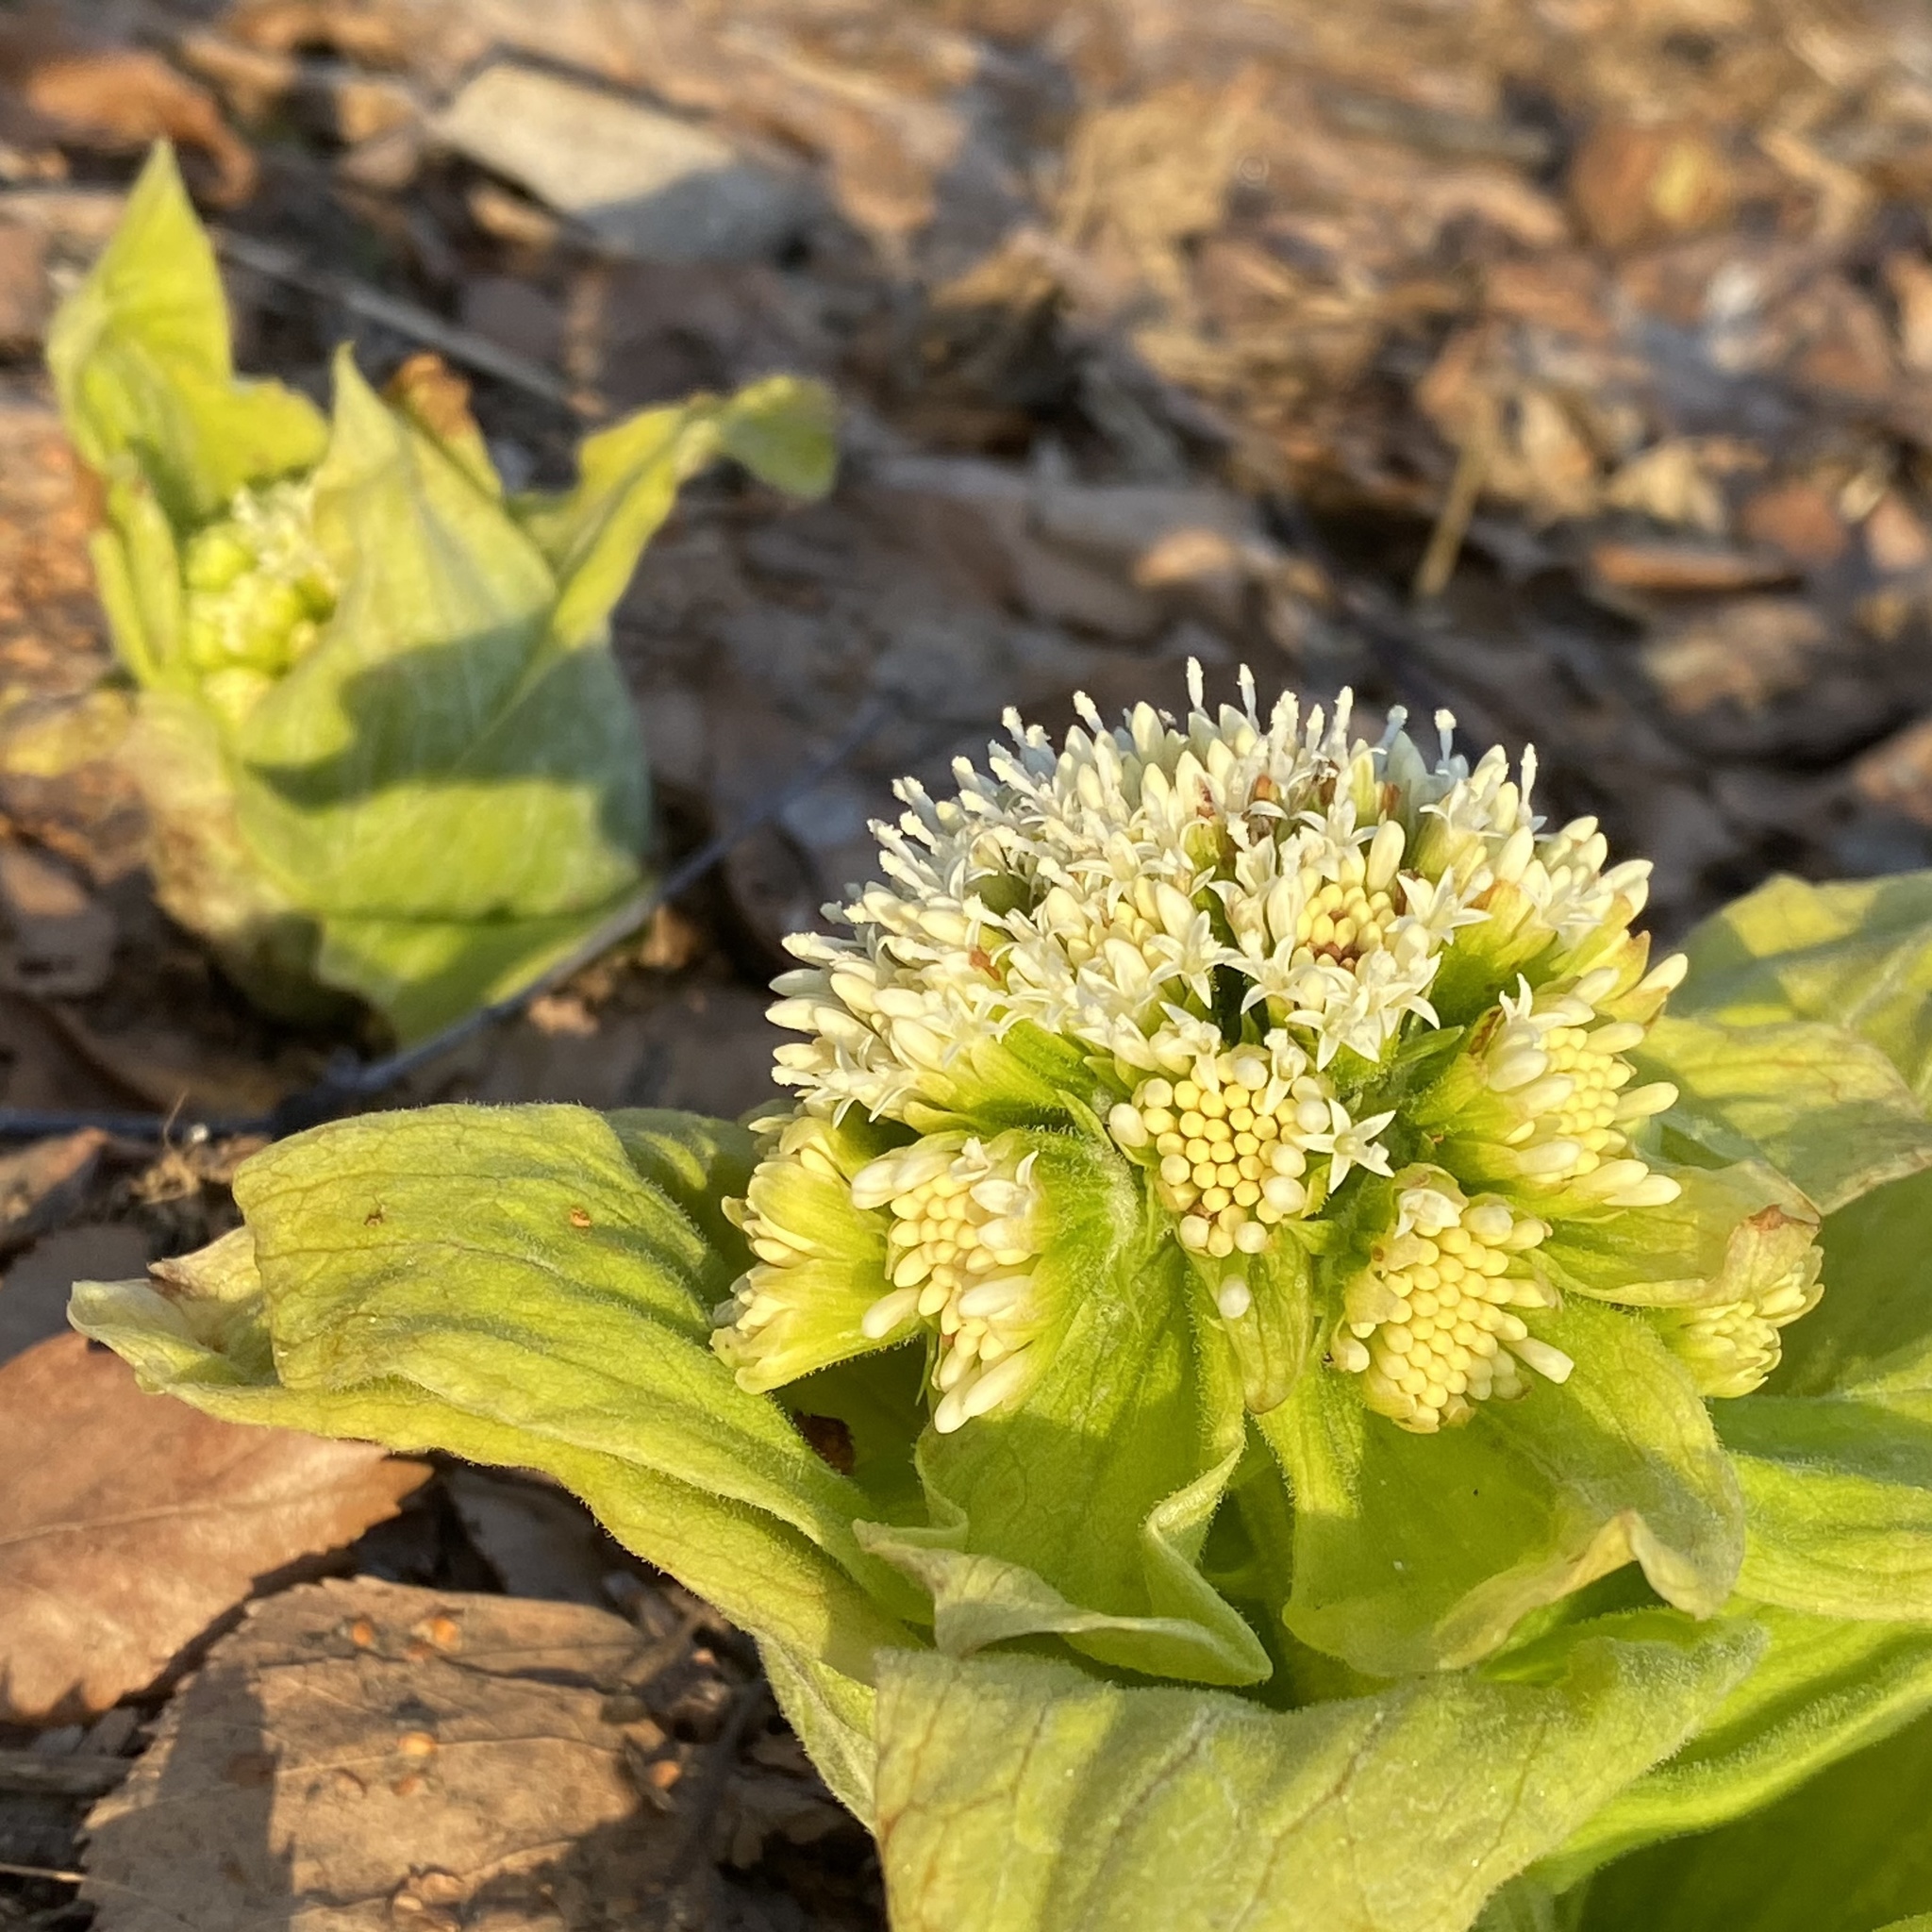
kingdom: Plantae
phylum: Tracheophyta
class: Magnoliopsida
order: Asterales
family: Asteraceae
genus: Petasites
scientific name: Petasites japonicus
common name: Giant butterbur
